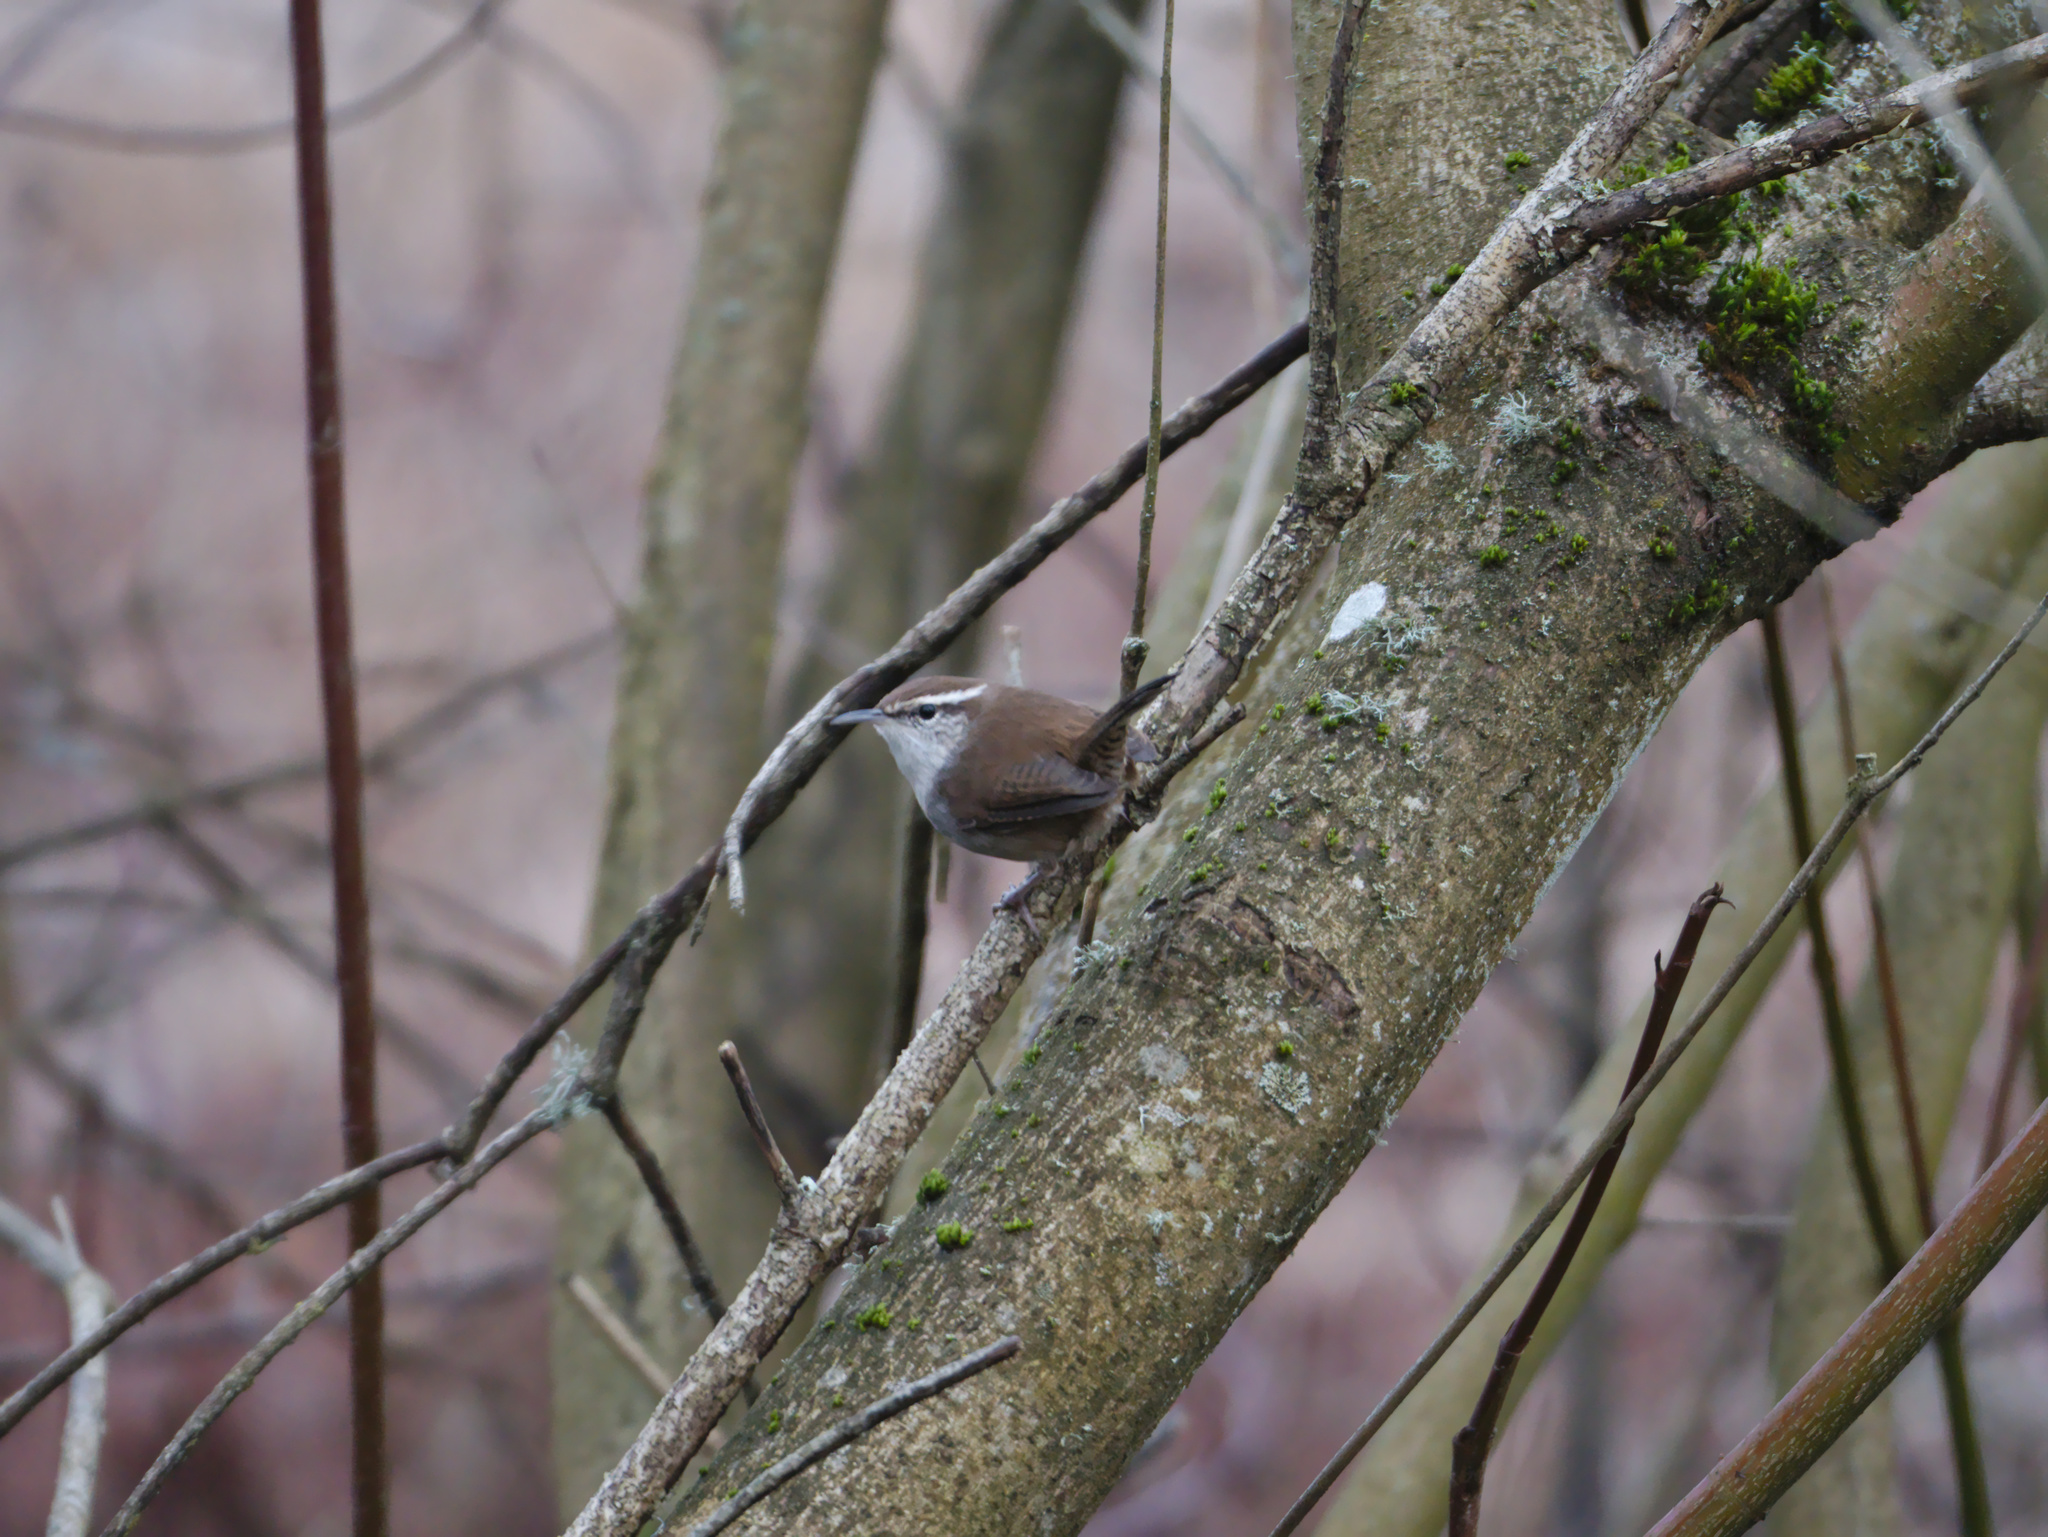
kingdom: Animalia
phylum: Chordata
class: Aves
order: Passeriformes
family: Troglodytidae
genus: Thryomanes
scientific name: Thryomanes bewickii
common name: Bewick's wren
